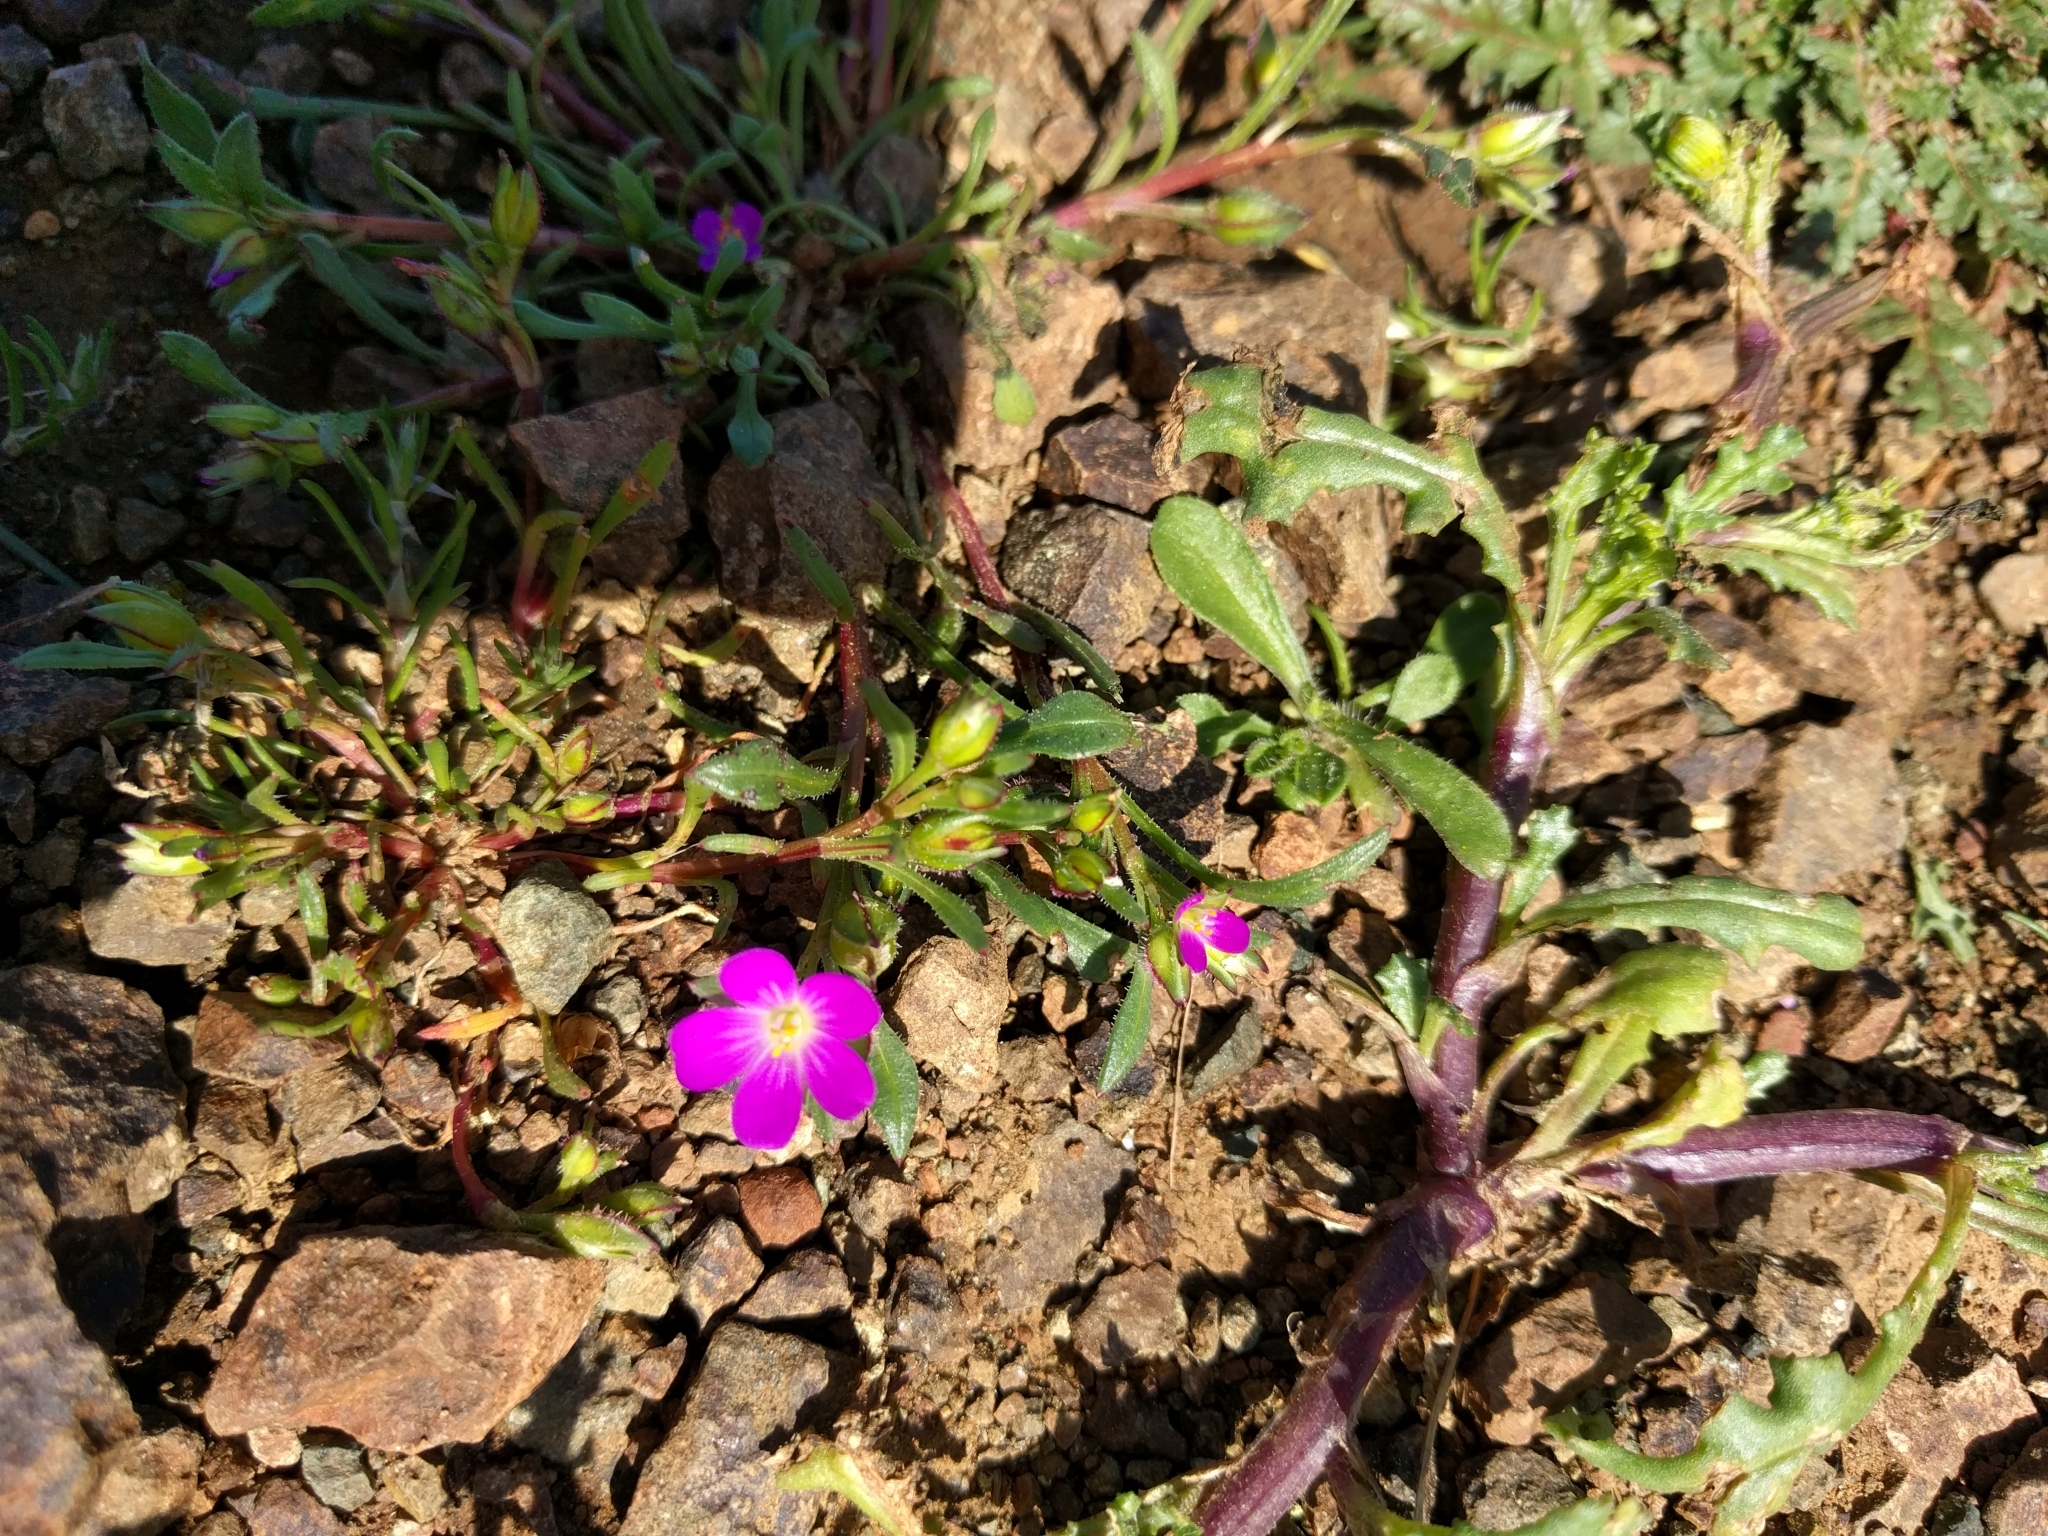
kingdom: Plantae
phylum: Tracheophyta
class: Magnoliopsida
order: Caryophyllales
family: Montiaceae
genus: Calandrinia
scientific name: Calandrinia menziesii
